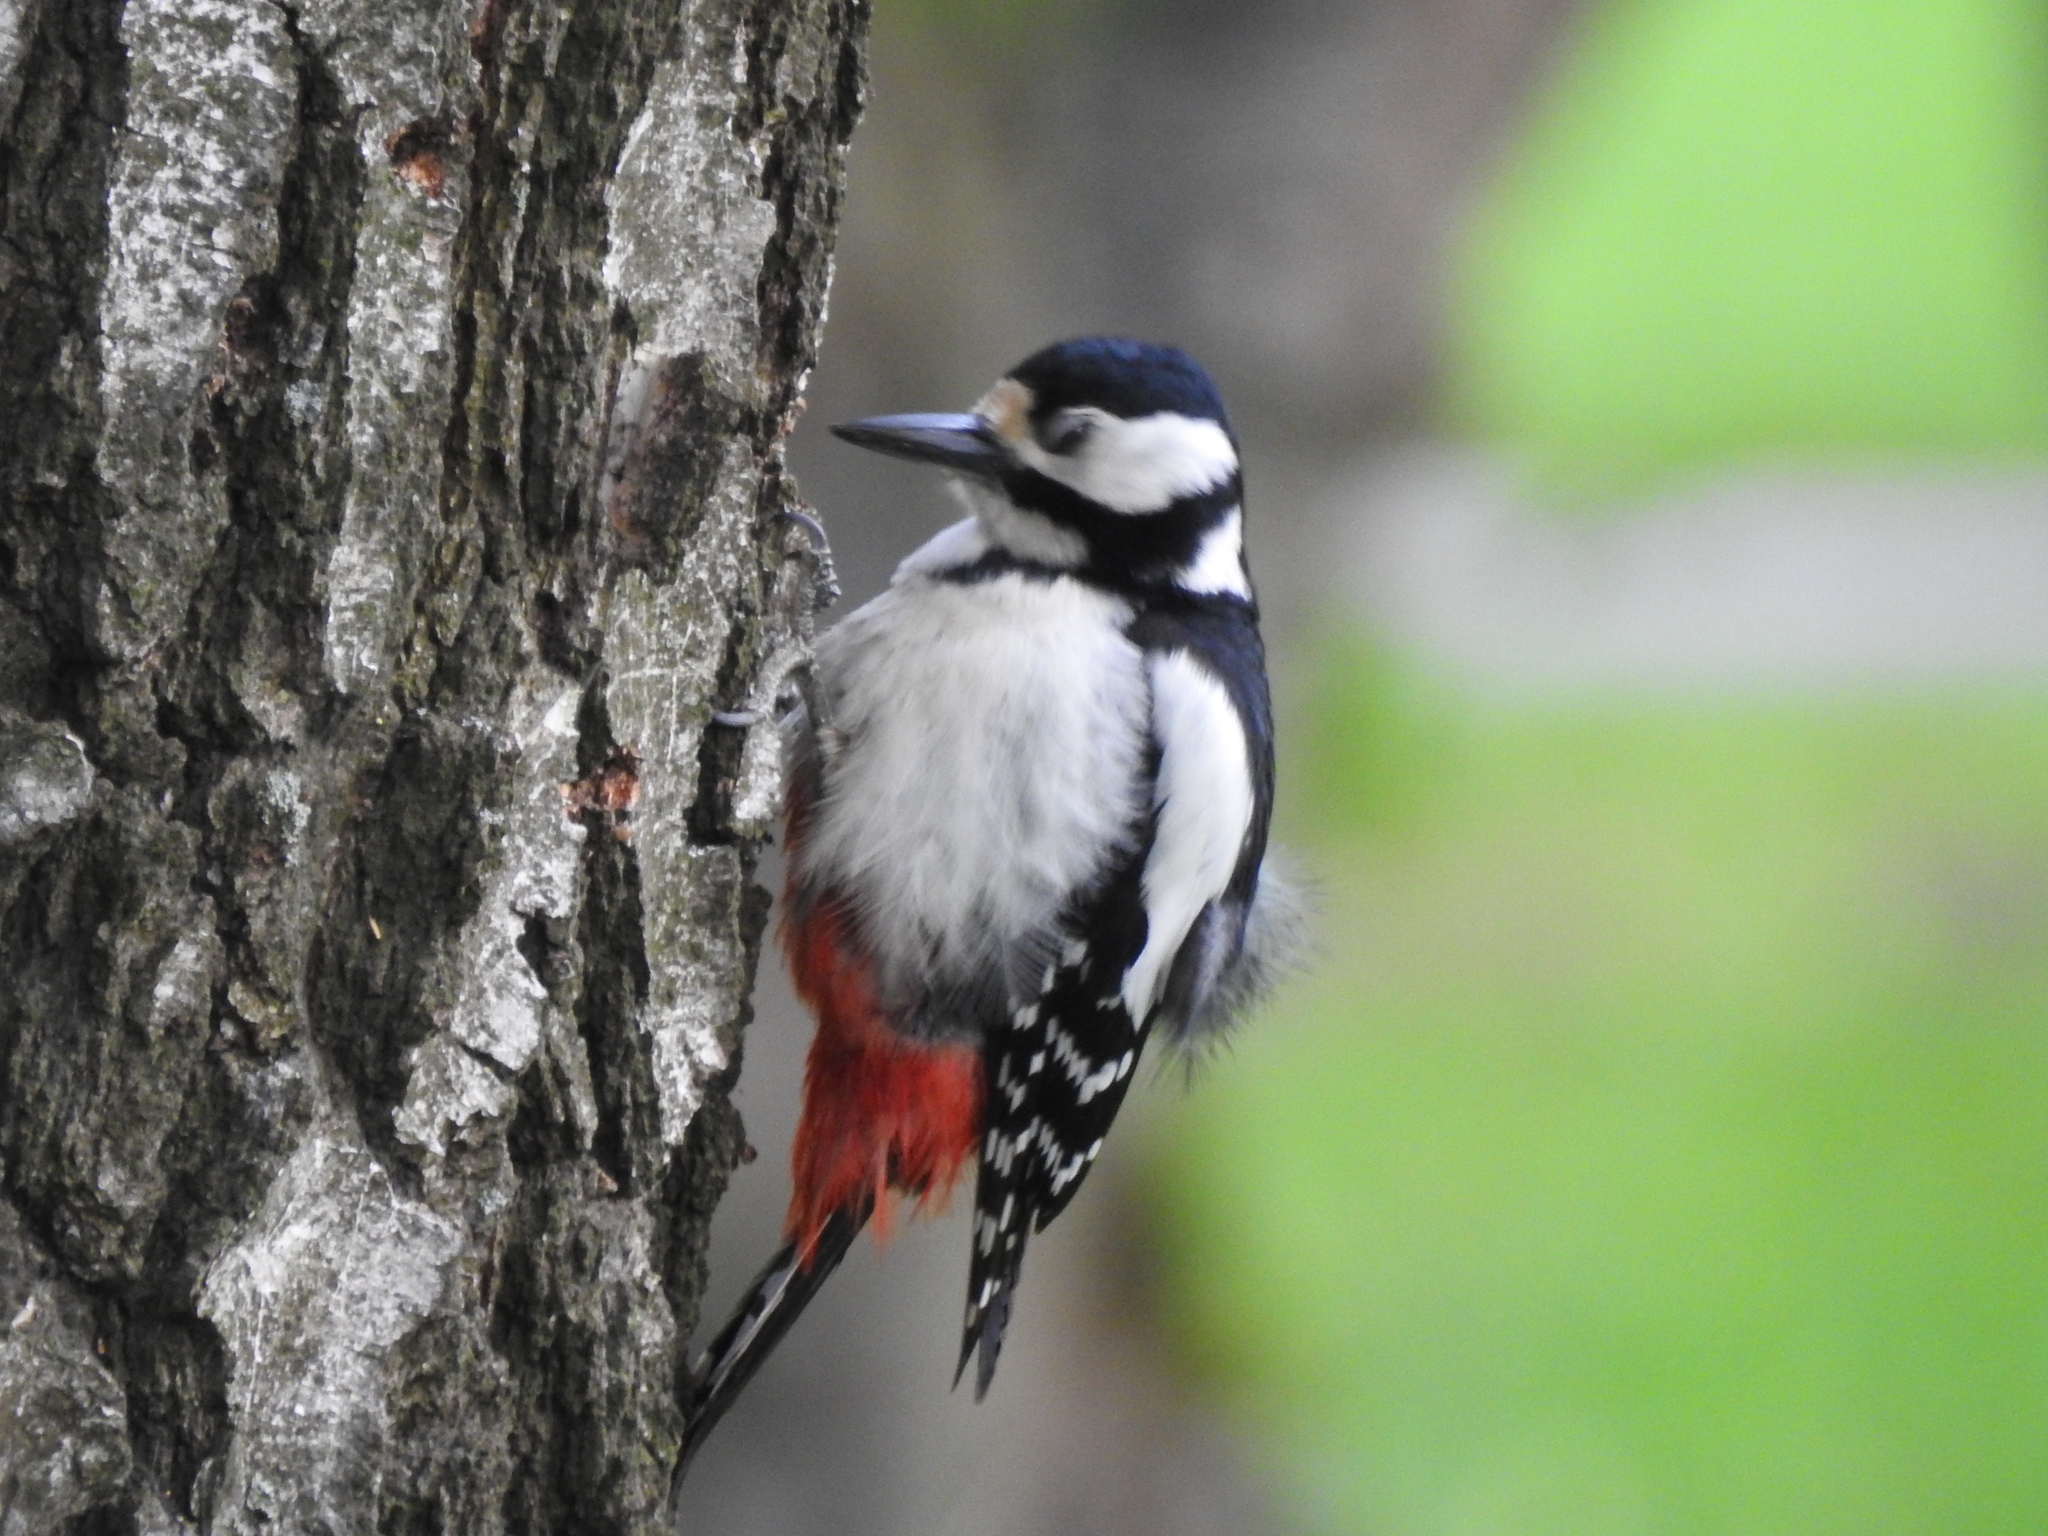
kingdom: Animalia
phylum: Chordata
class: Aves
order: Piciformes
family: Picidae
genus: Dendrocopos
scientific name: Dendrocopos major
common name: Great spotted woodpecker
